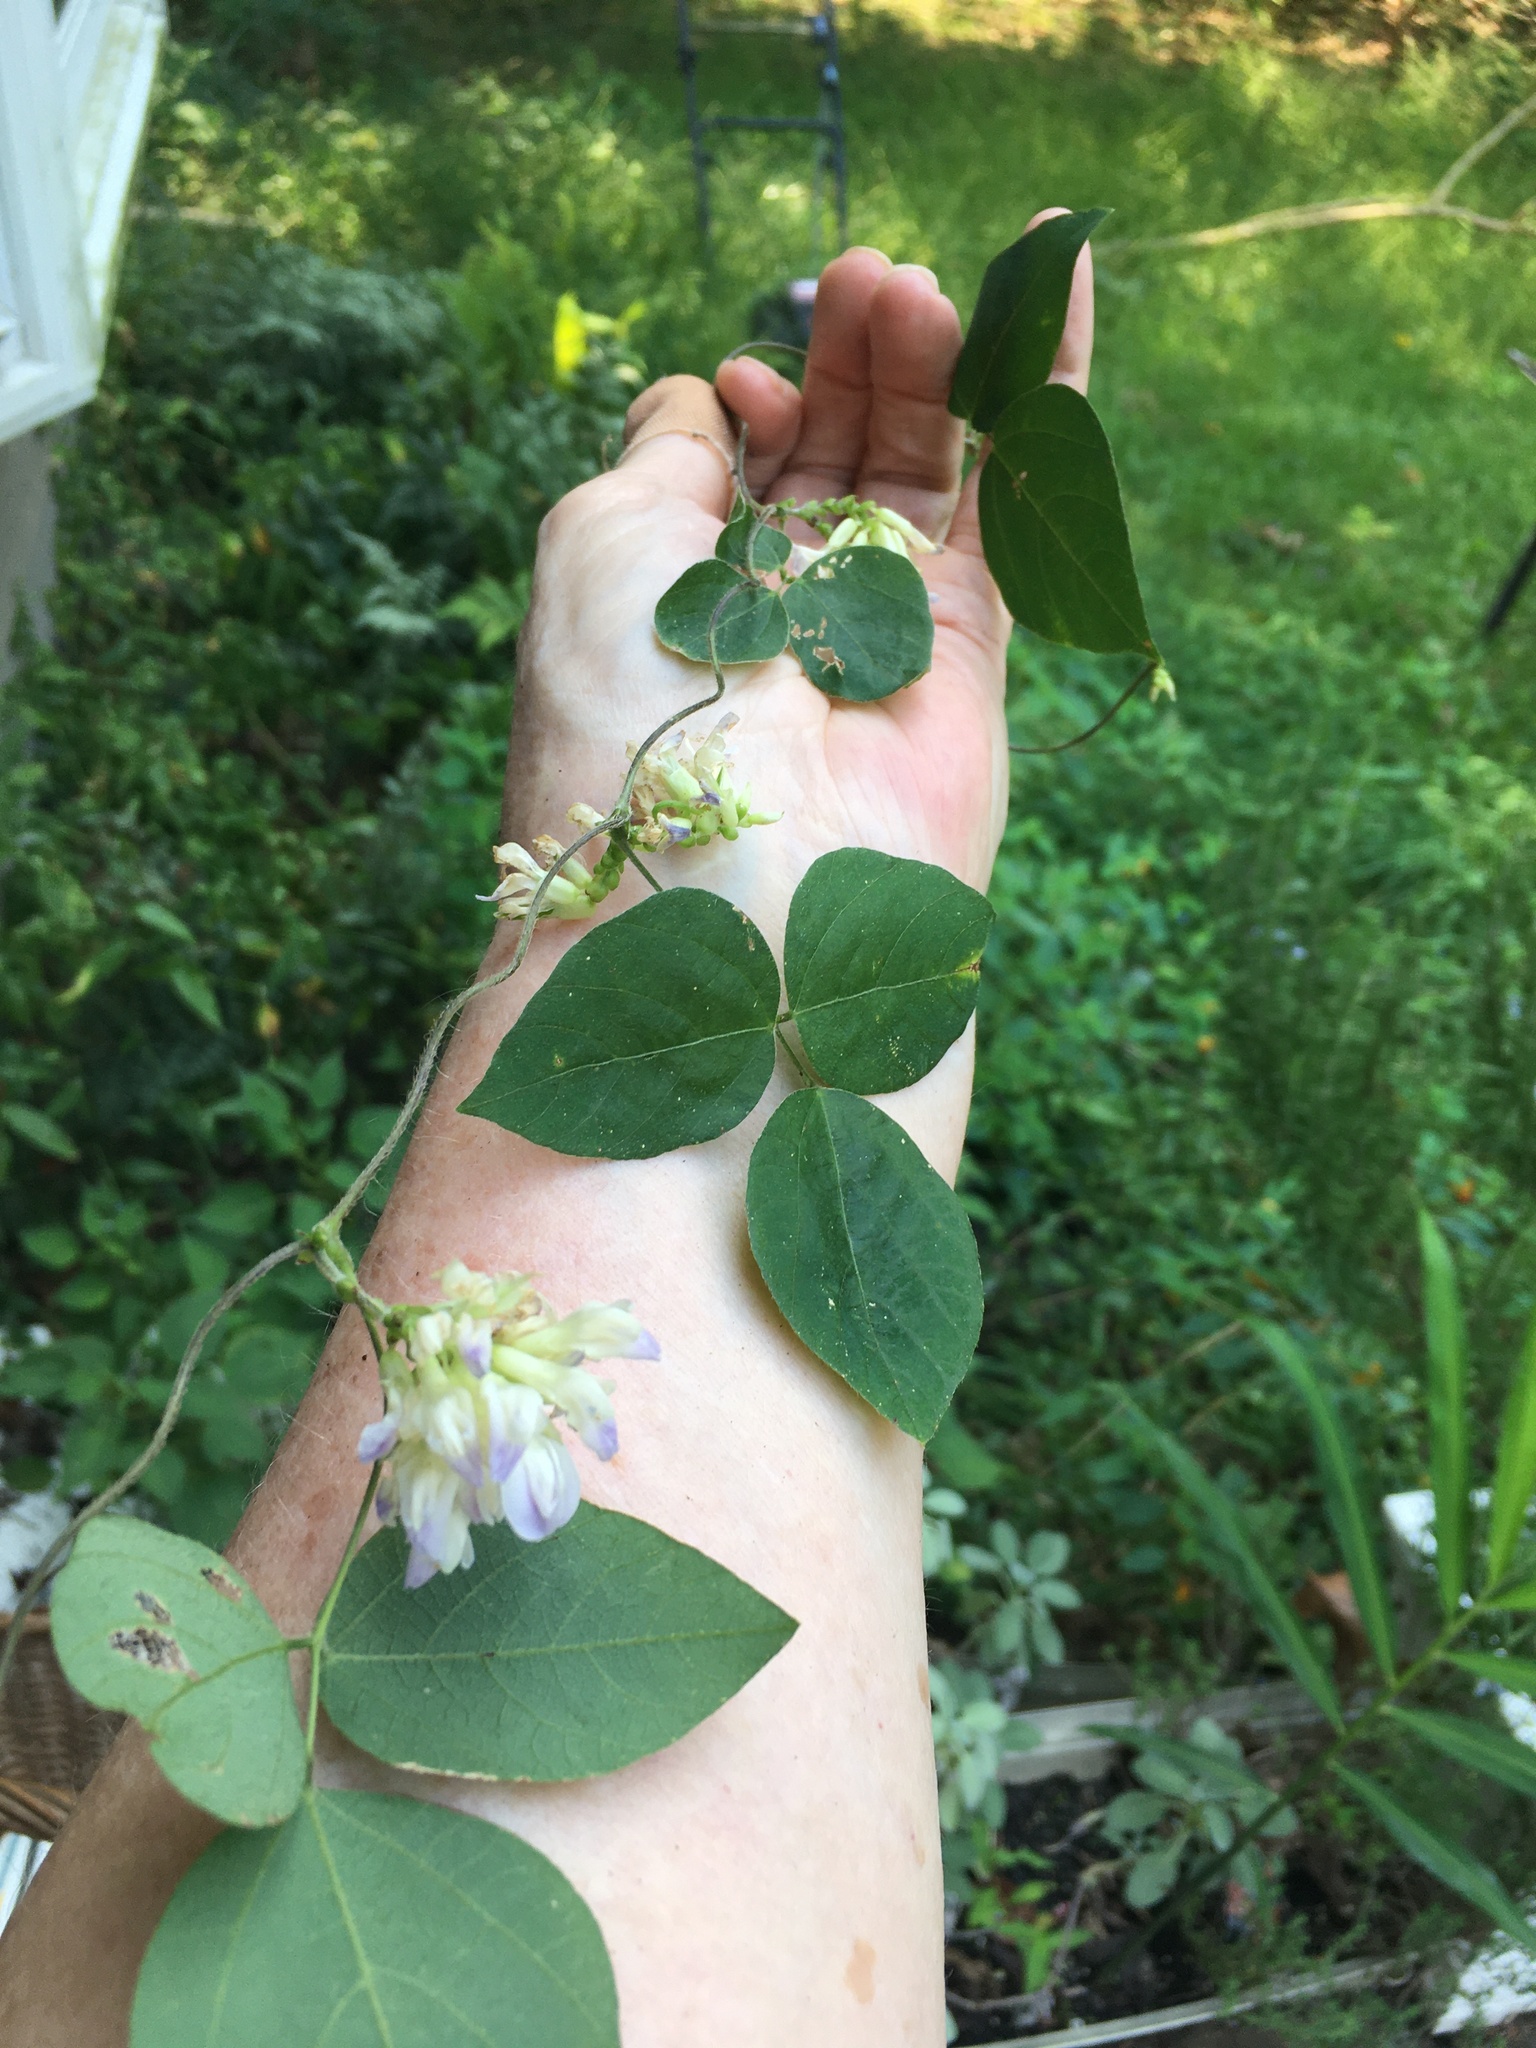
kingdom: Plantae
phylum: Tracheophyta
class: Magnoliopsida
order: Fabales
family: Fabaceae
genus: Amphicarpaea
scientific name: Amphicarpaea bracteata
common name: American hog peanut
